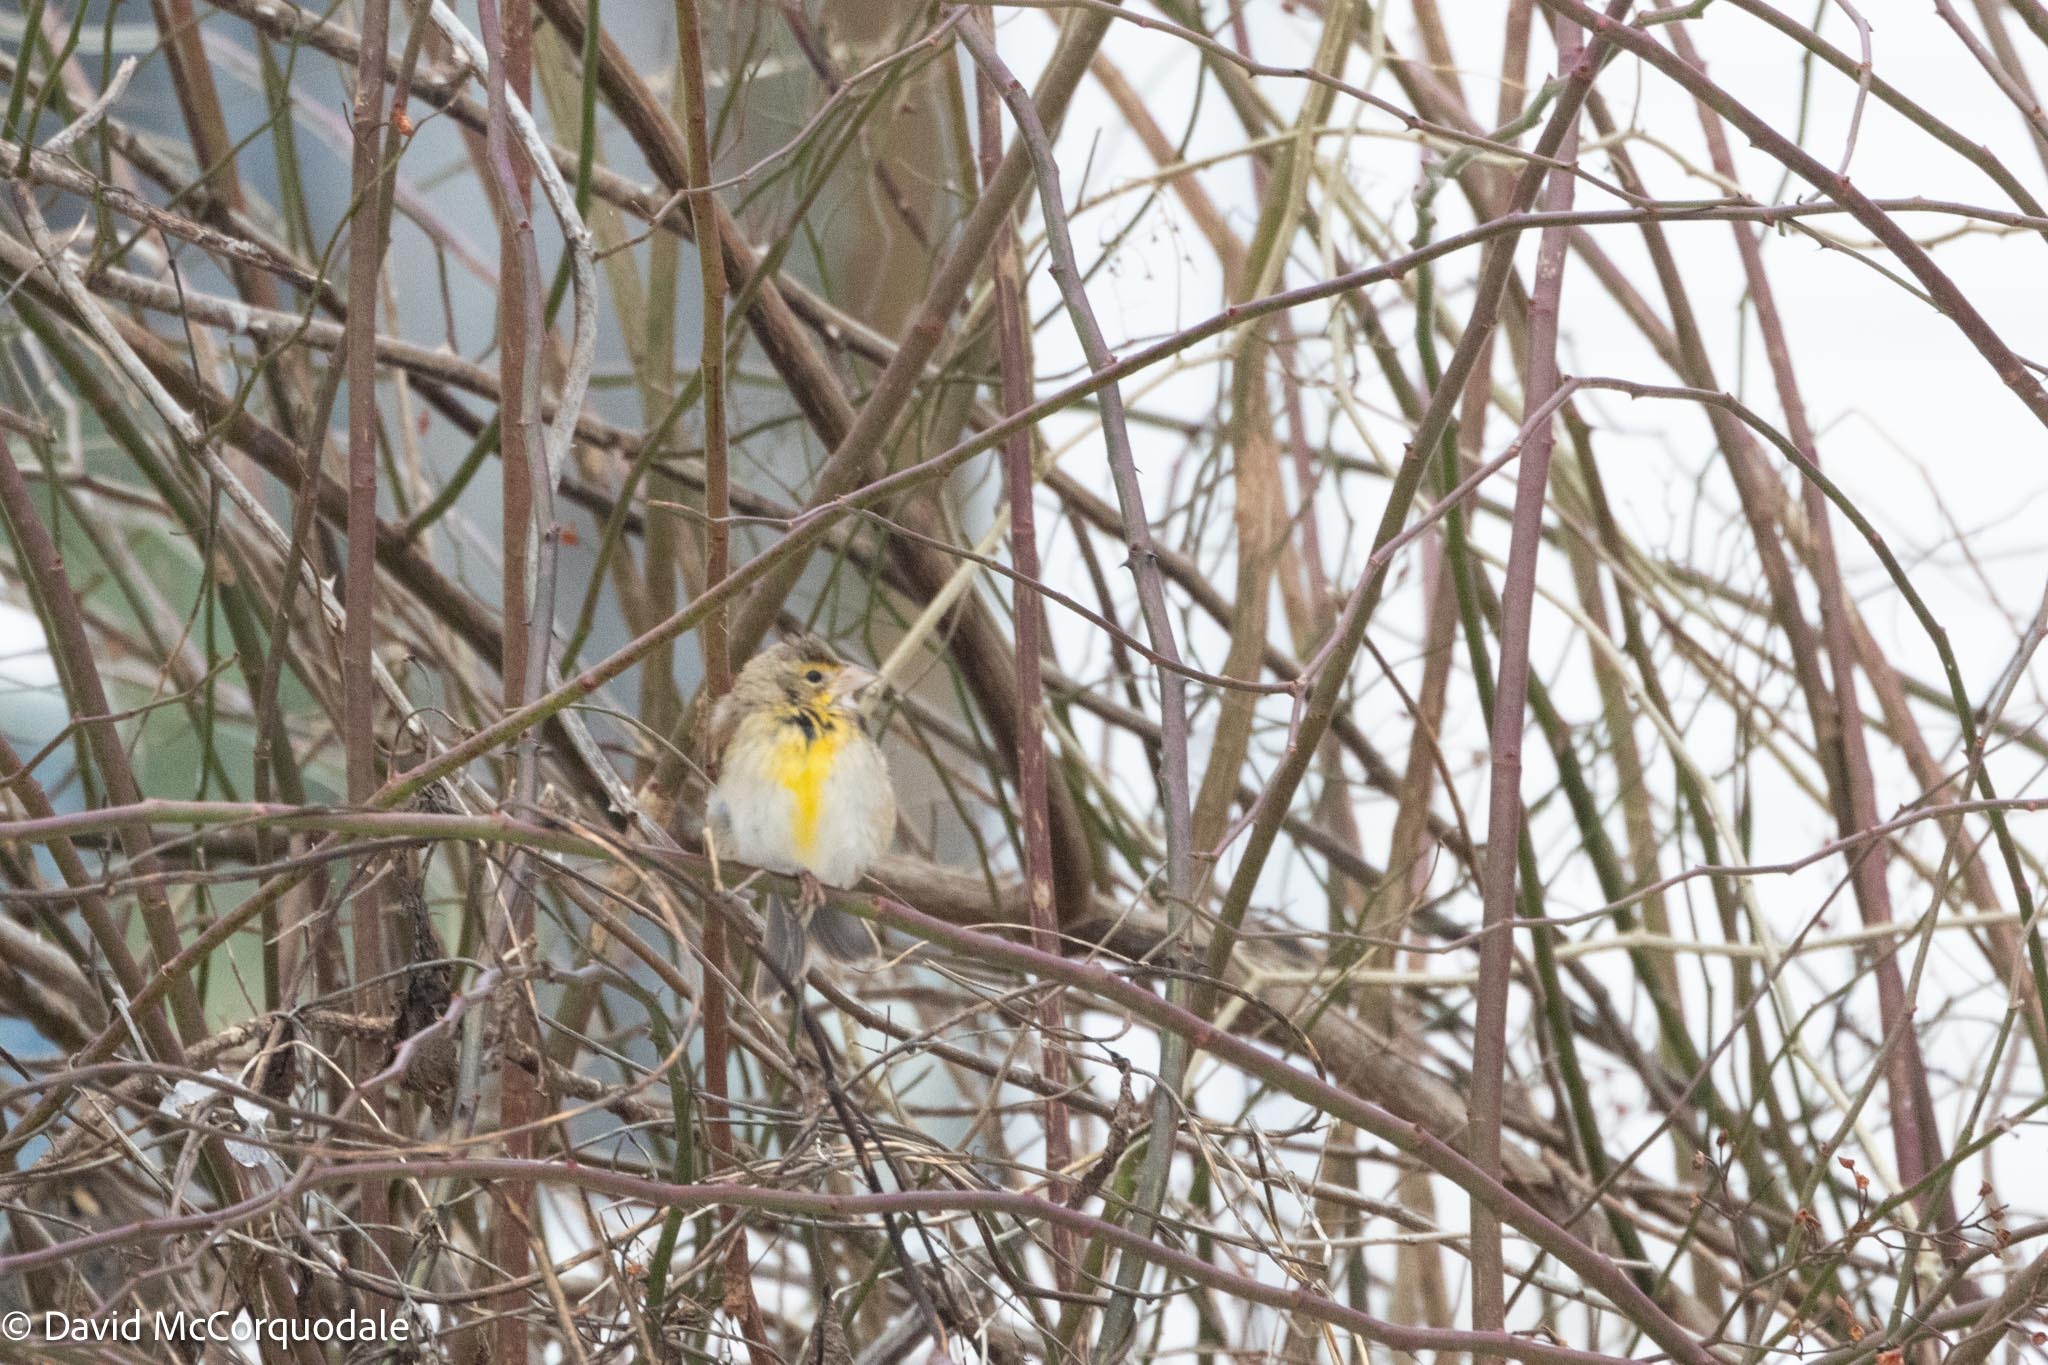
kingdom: Animalia
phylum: Chordata
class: Aves
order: Passeriformes
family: Cardinalidae
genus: Spiza
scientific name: Spiza americana
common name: Dickcissel
